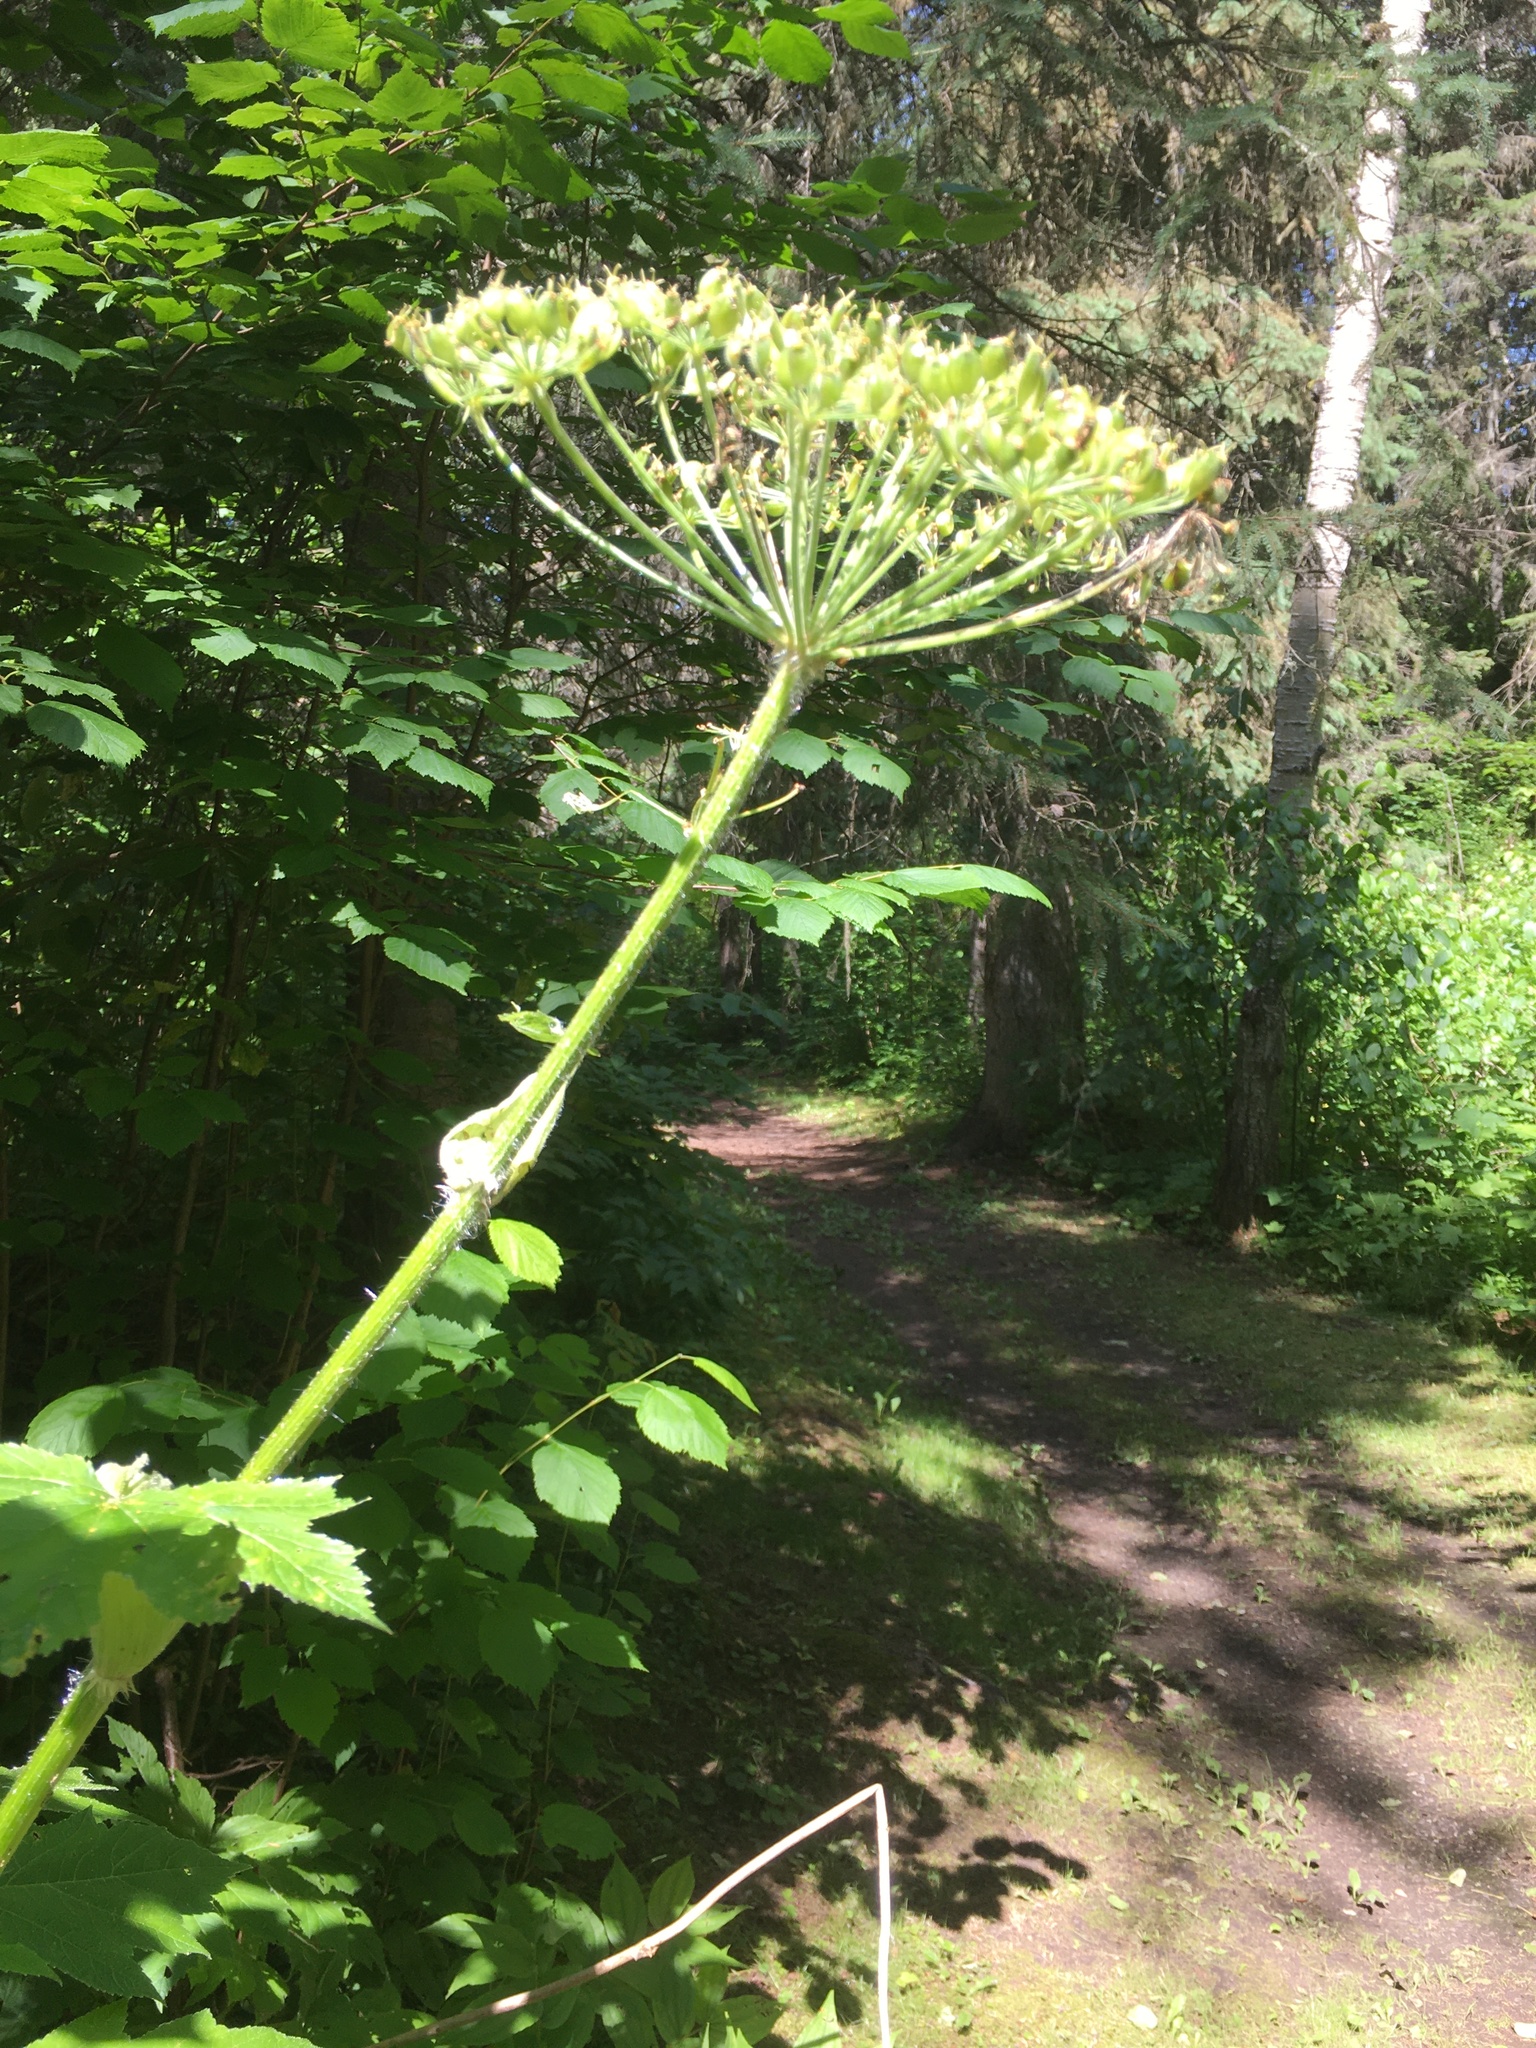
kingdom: Plantae
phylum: Tracheophyta
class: Magnoliopsida
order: Apiales
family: Apiaceae
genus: Heracleum
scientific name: Heracleum maximum
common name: American cow parsnip
